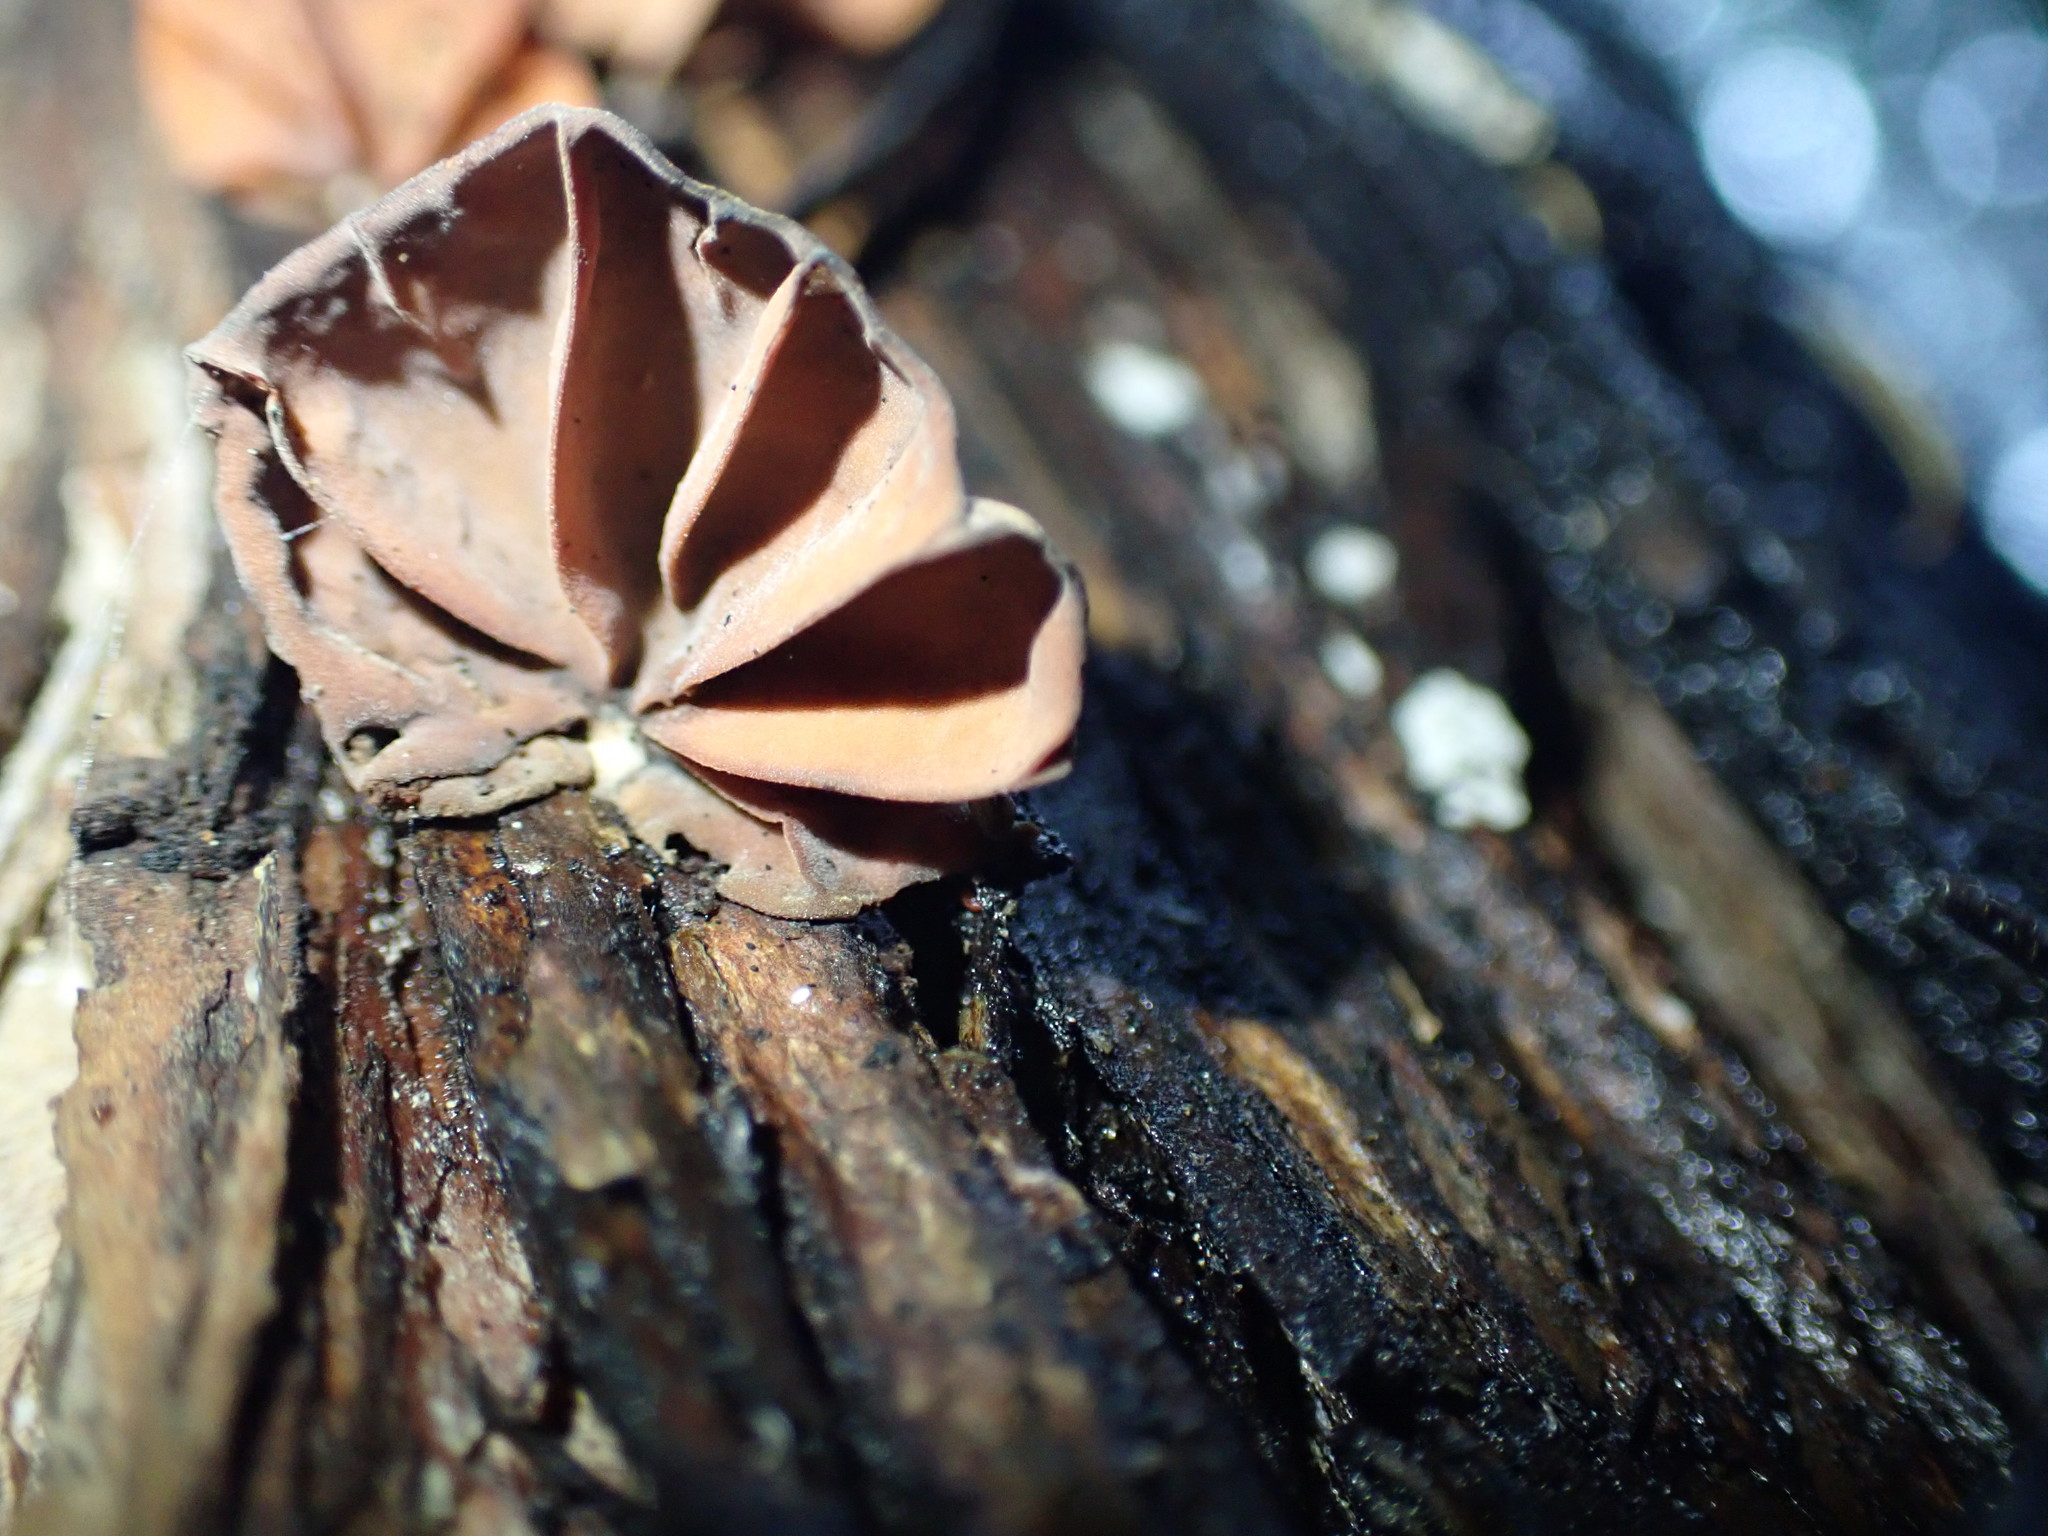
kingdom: Fungi
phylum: Basidiomycota
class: Agaricomycetes
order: Agaricales
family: Omphalotaceae
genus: Anthracophyllum
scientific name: Anthracophyllum archeri
